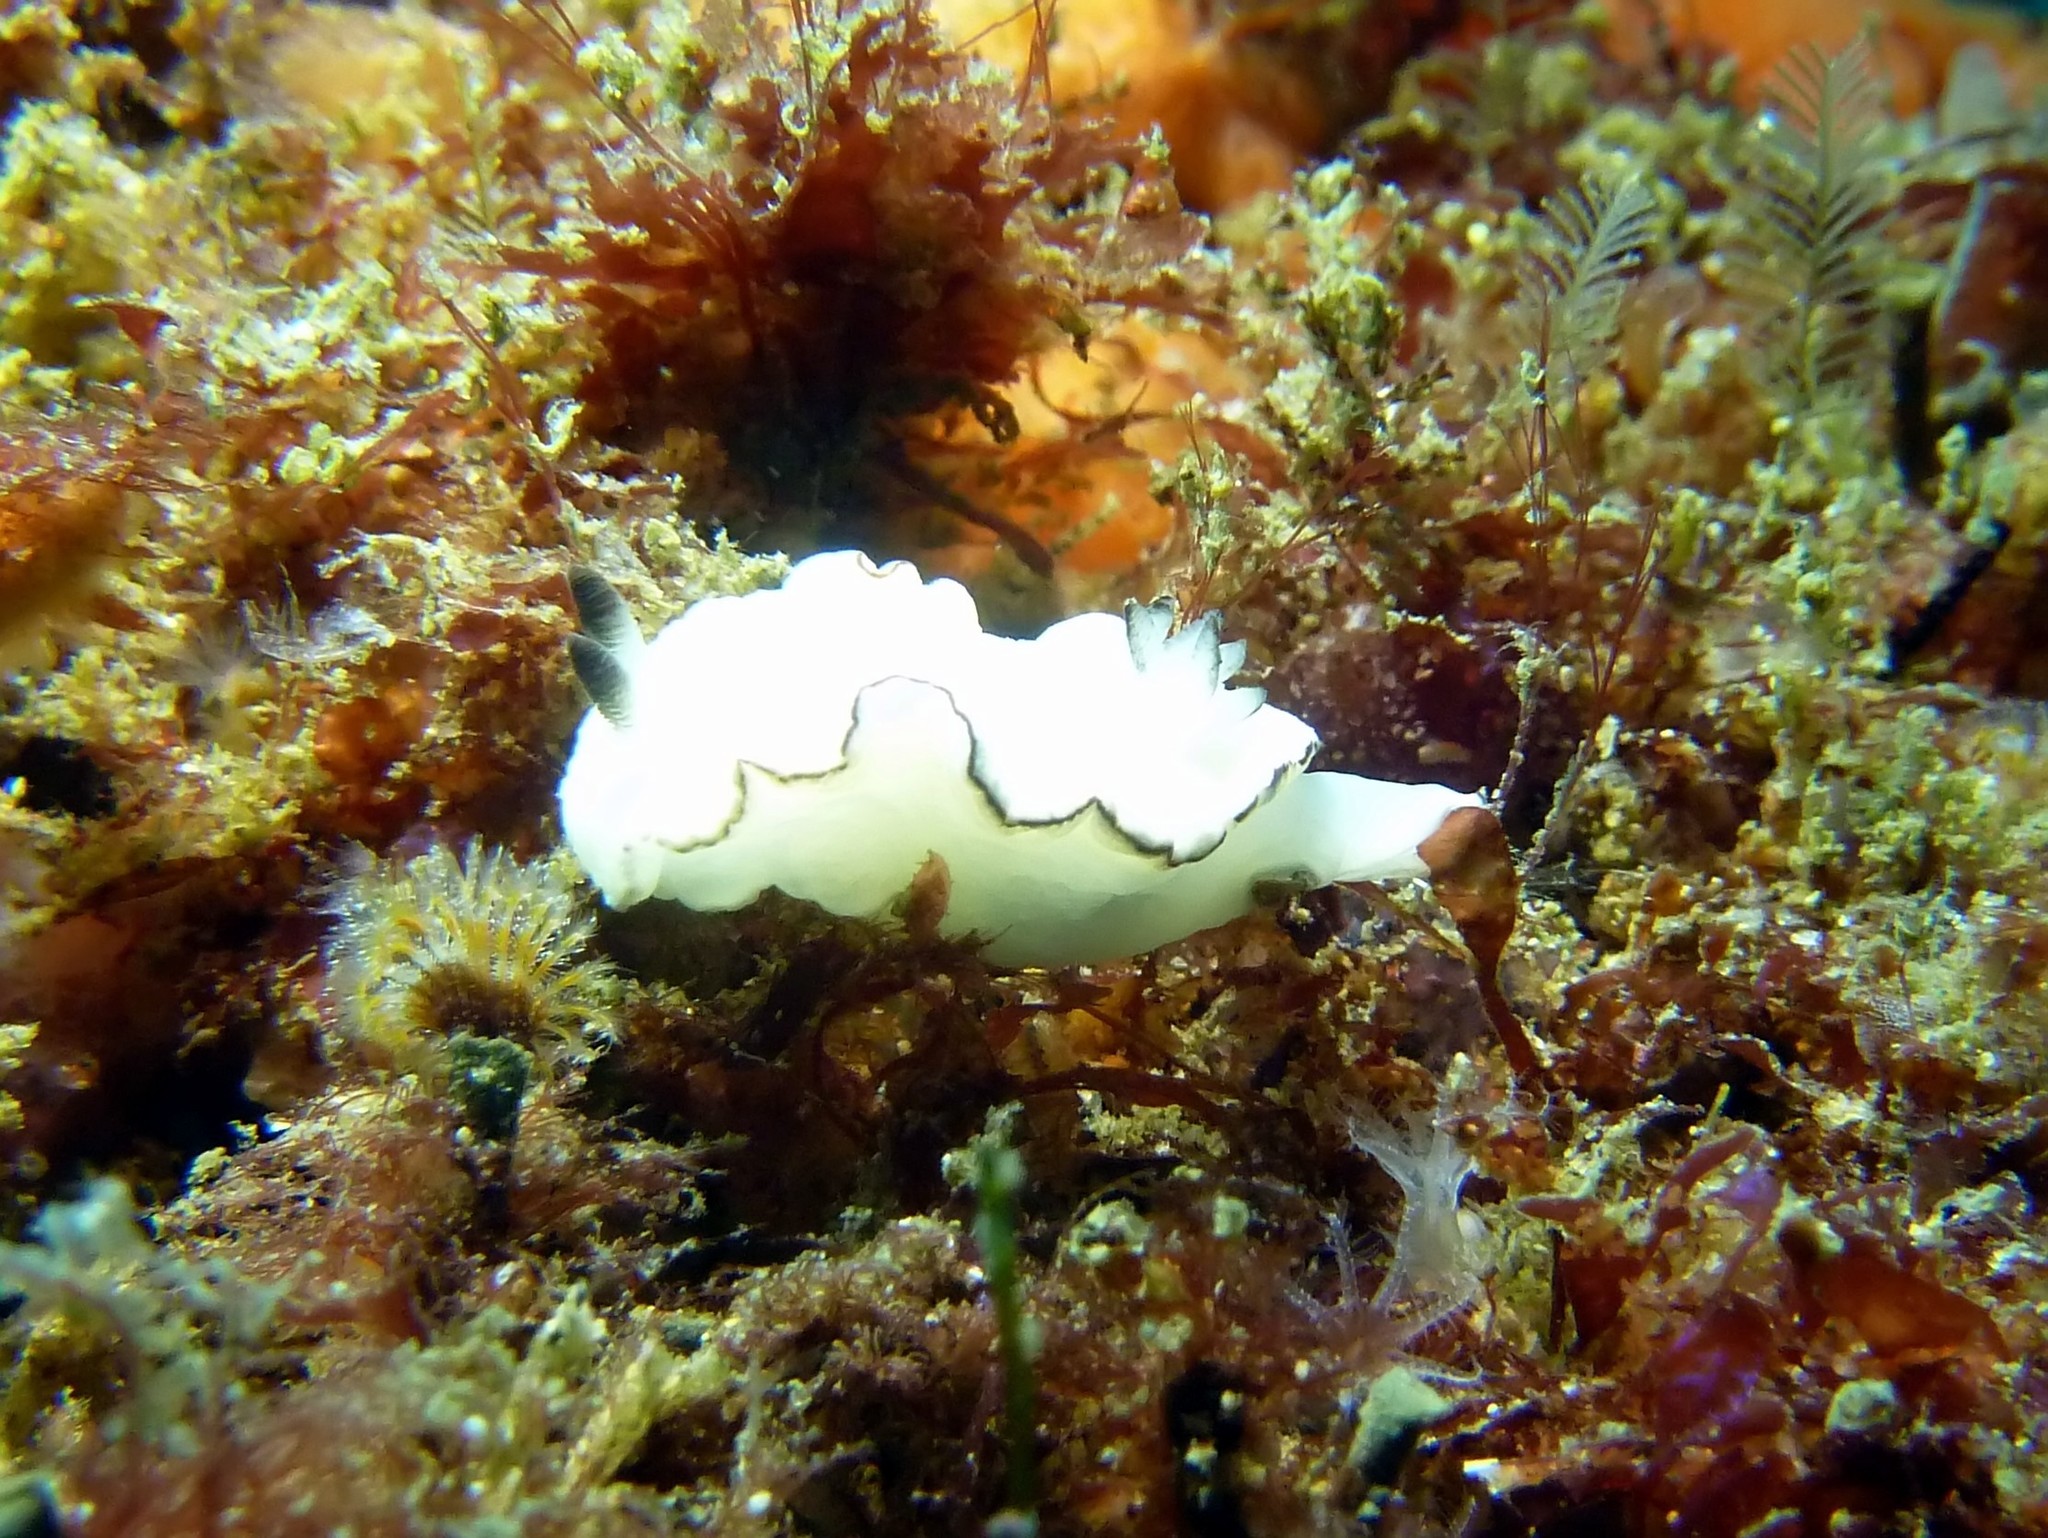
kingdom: Animalia
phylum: Mollusca
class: Gastropoda
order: Nudibranchia
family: Chromodorididae
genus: Glossodoris
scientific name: Glossodoris angasi
